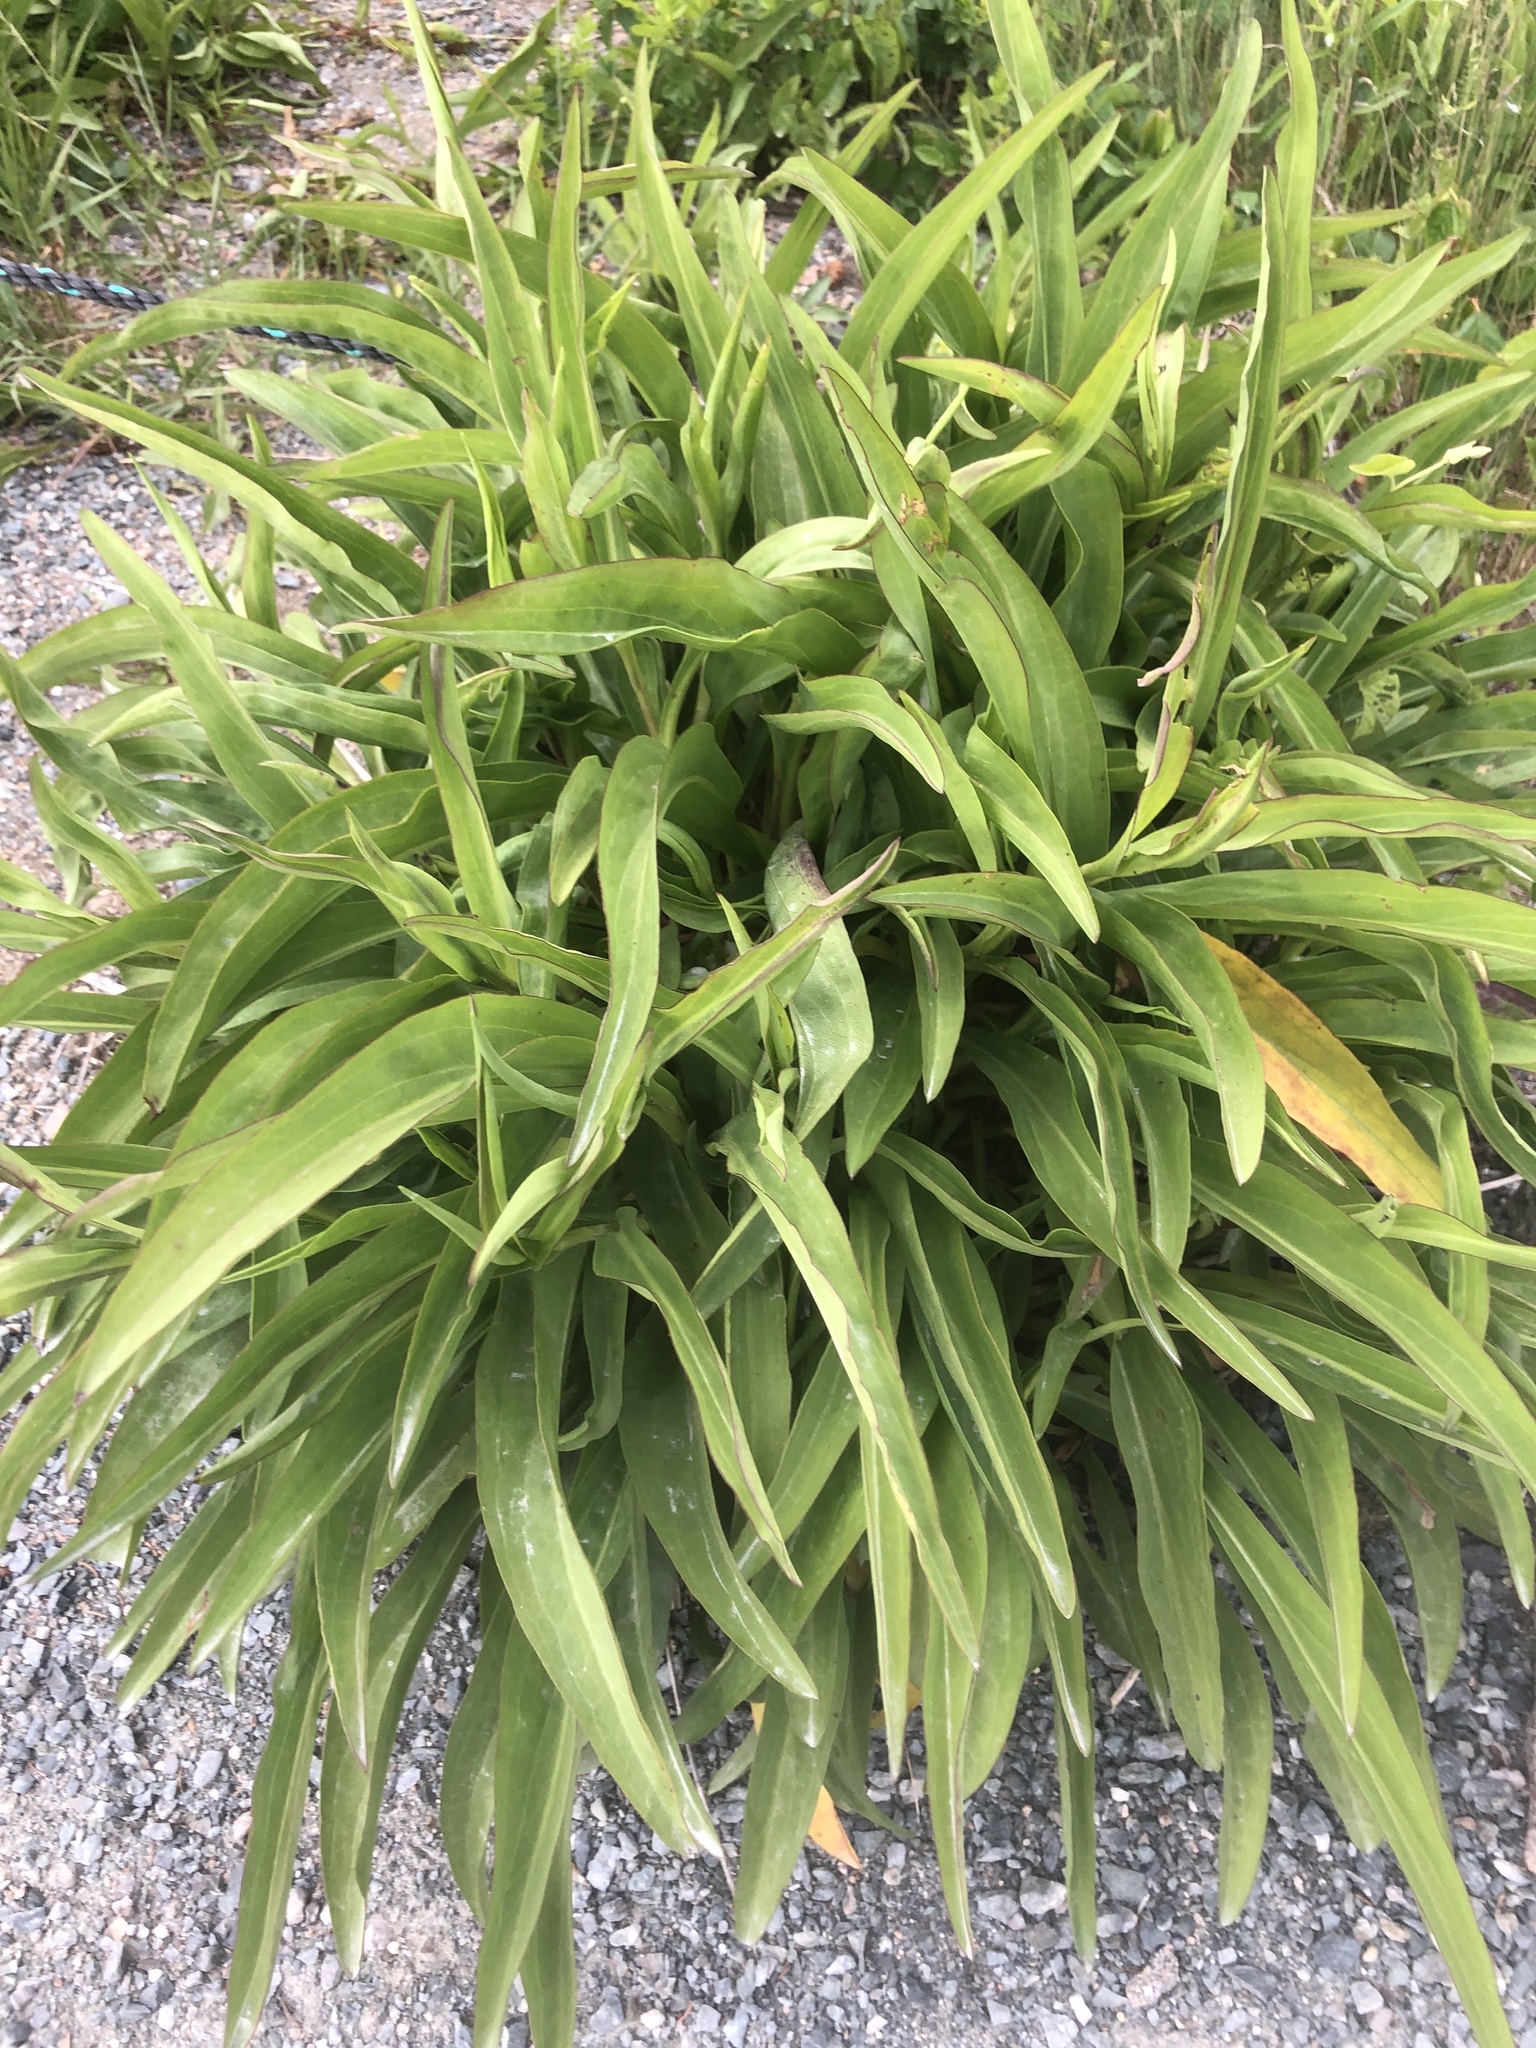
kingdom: Plantae
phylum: Tracheophyta
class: Magnoliopsida
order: Asterales
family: Asteraceae
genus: Solidago
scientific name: Solidago sempervirens
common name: Salt-marsh goldenrod
